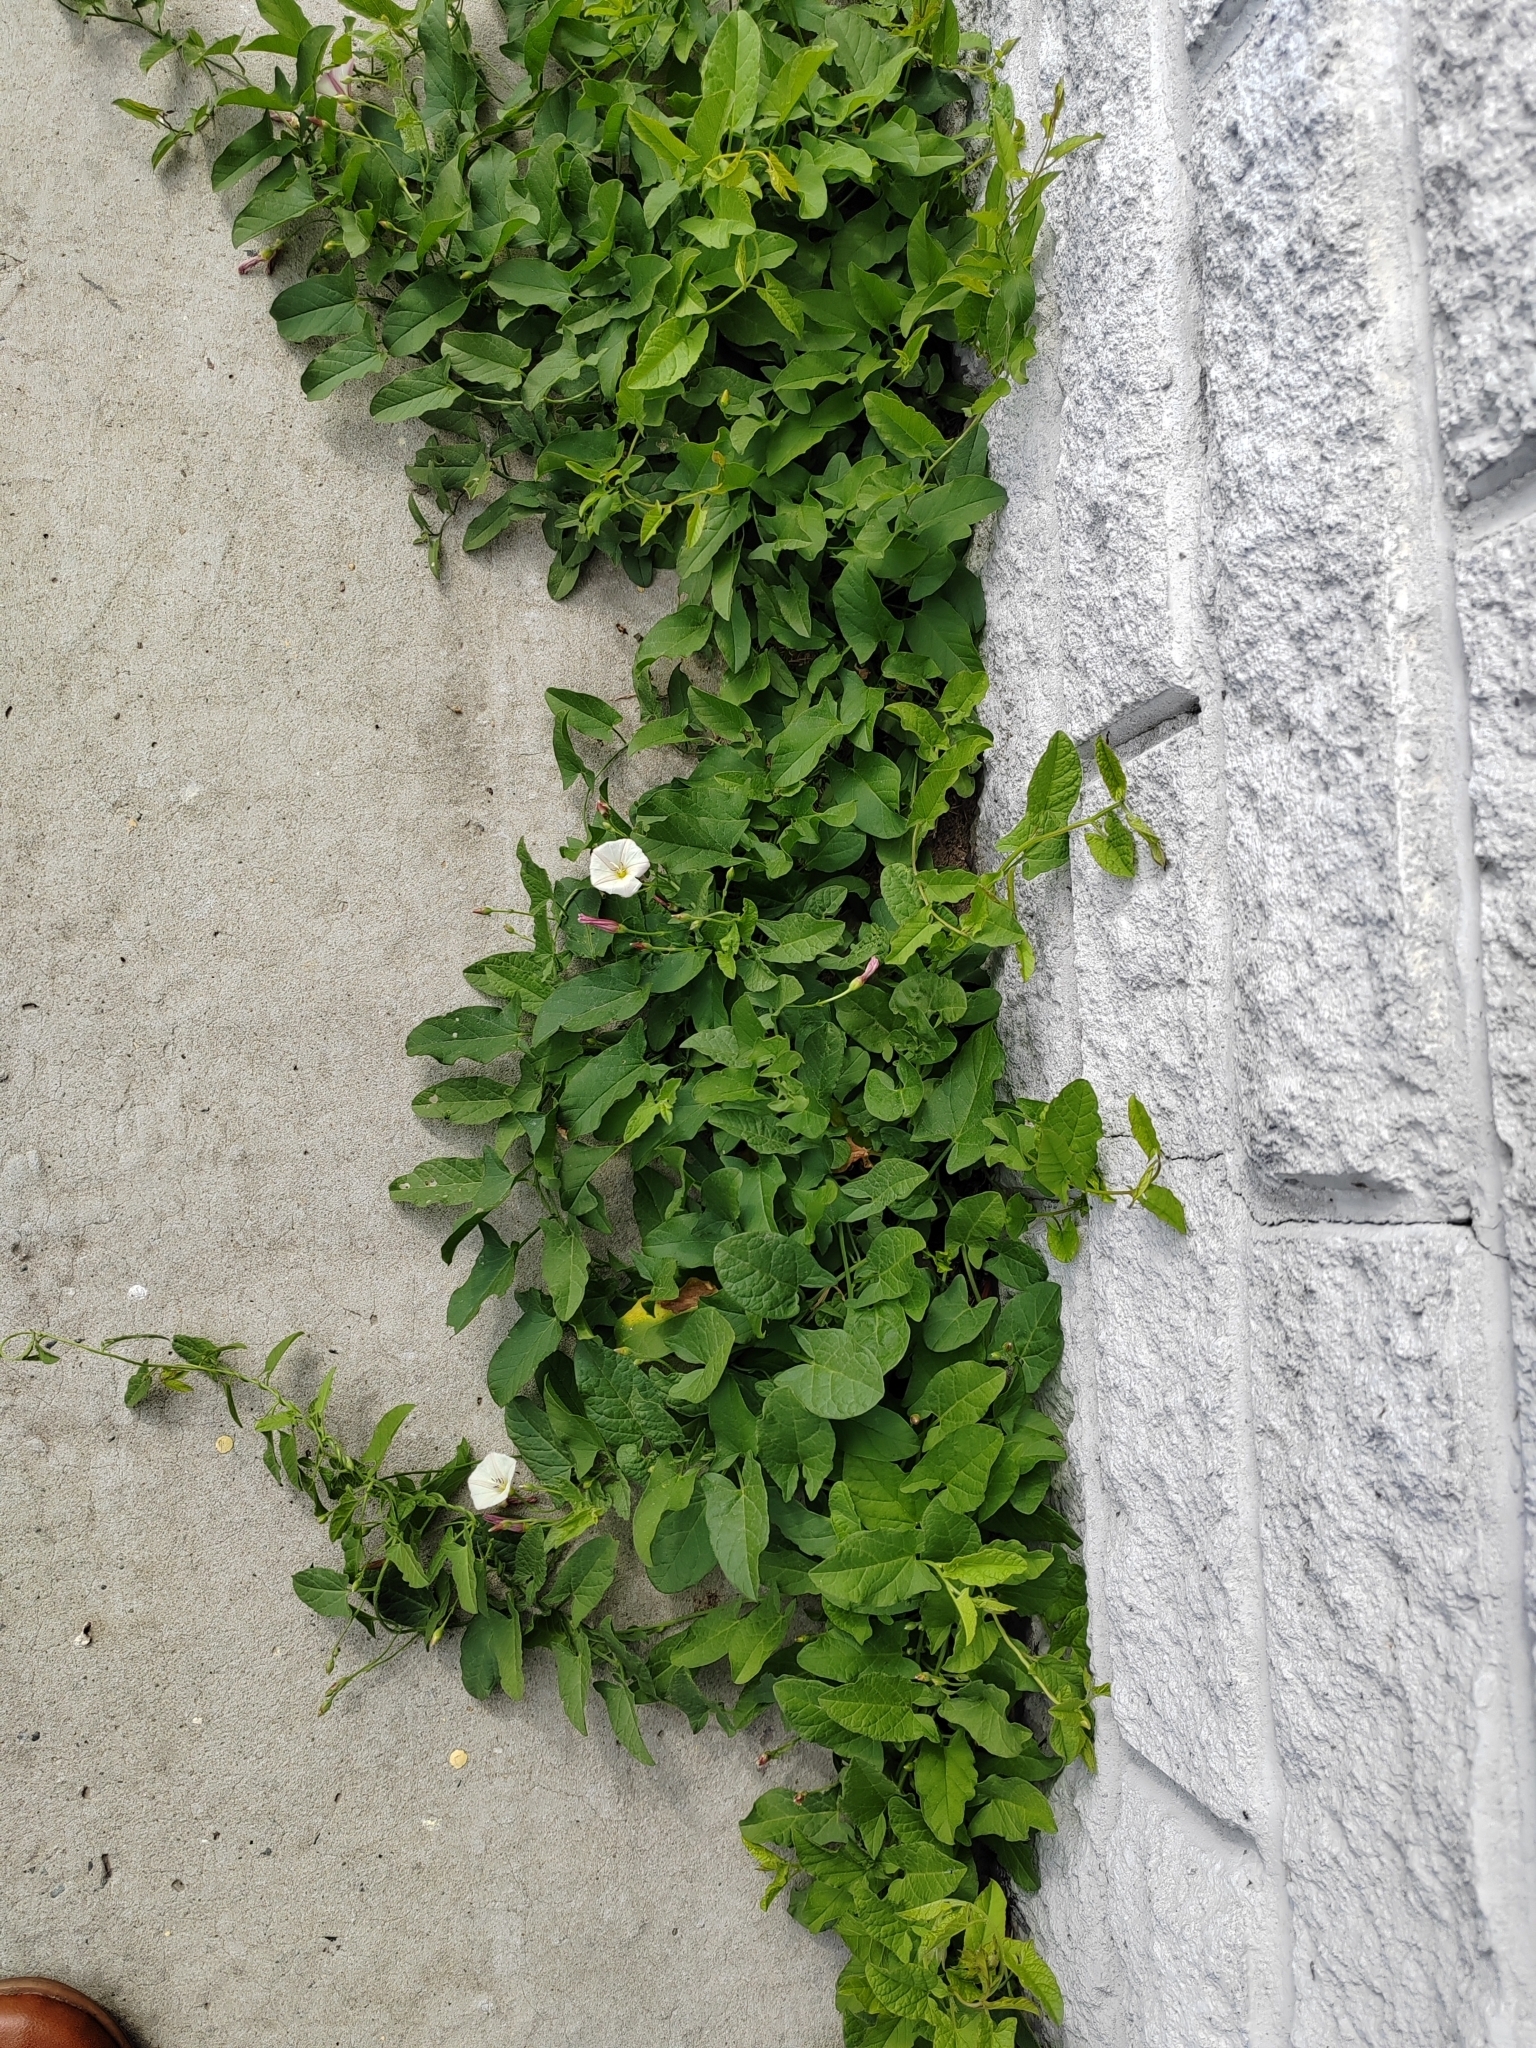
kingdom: Plantae
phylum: Tracheophyta
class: Magnoliopsida
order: Solanales
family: Convolvulaceae
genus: Convolvulus
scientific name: Convolvulus arvensis
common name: Field bindweed
